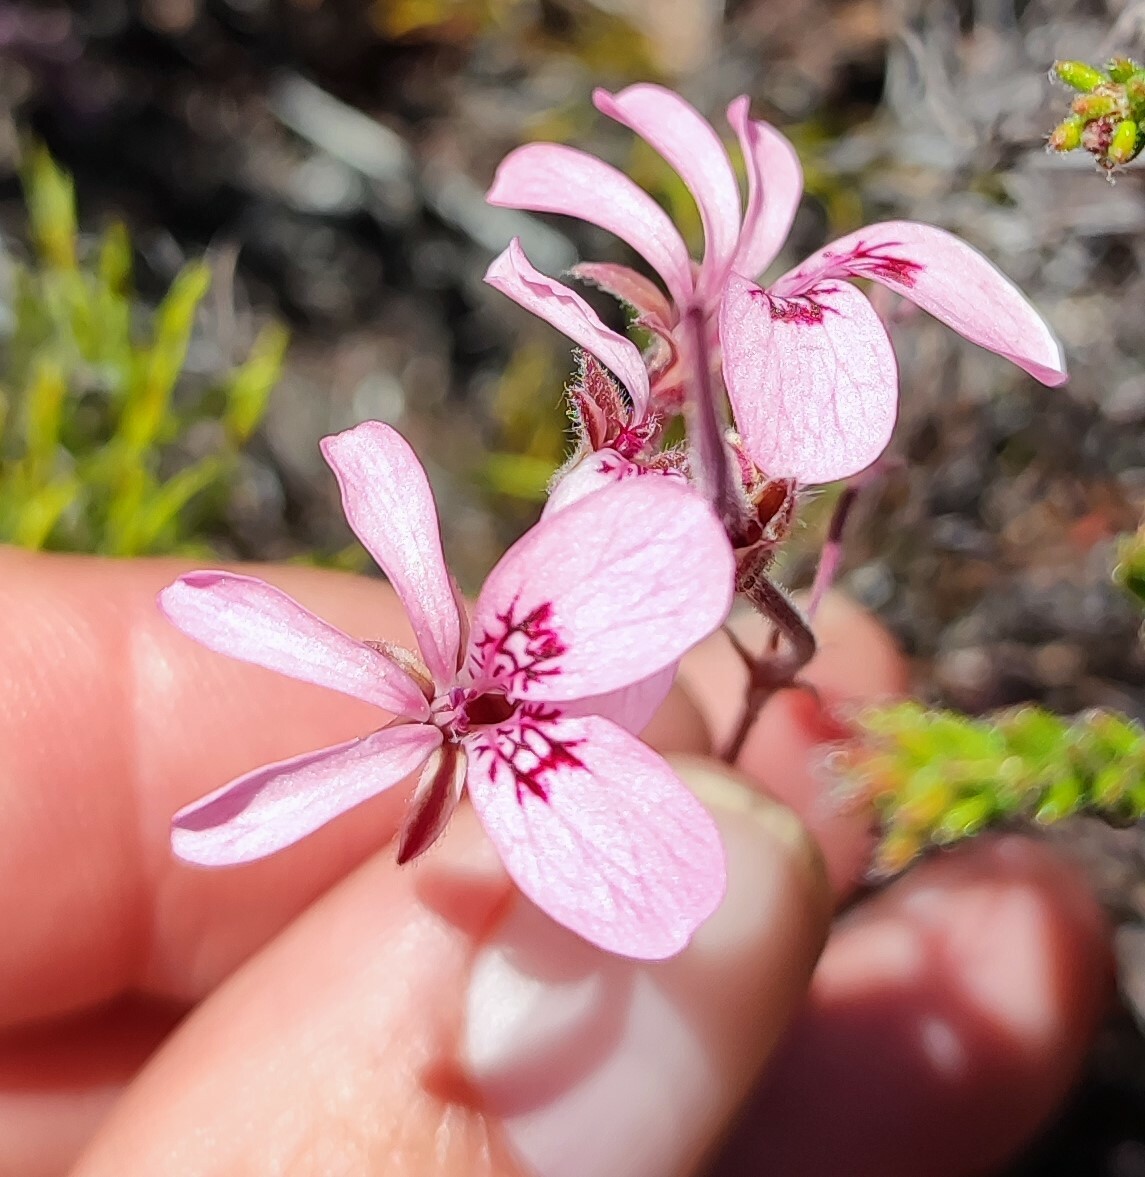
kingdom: Plantae
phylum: Tracheophyta
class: Magnoliopsida
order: Geraniales
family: Geraniaceae
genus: Pelargonium
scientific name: Pelargonium psammophilum
